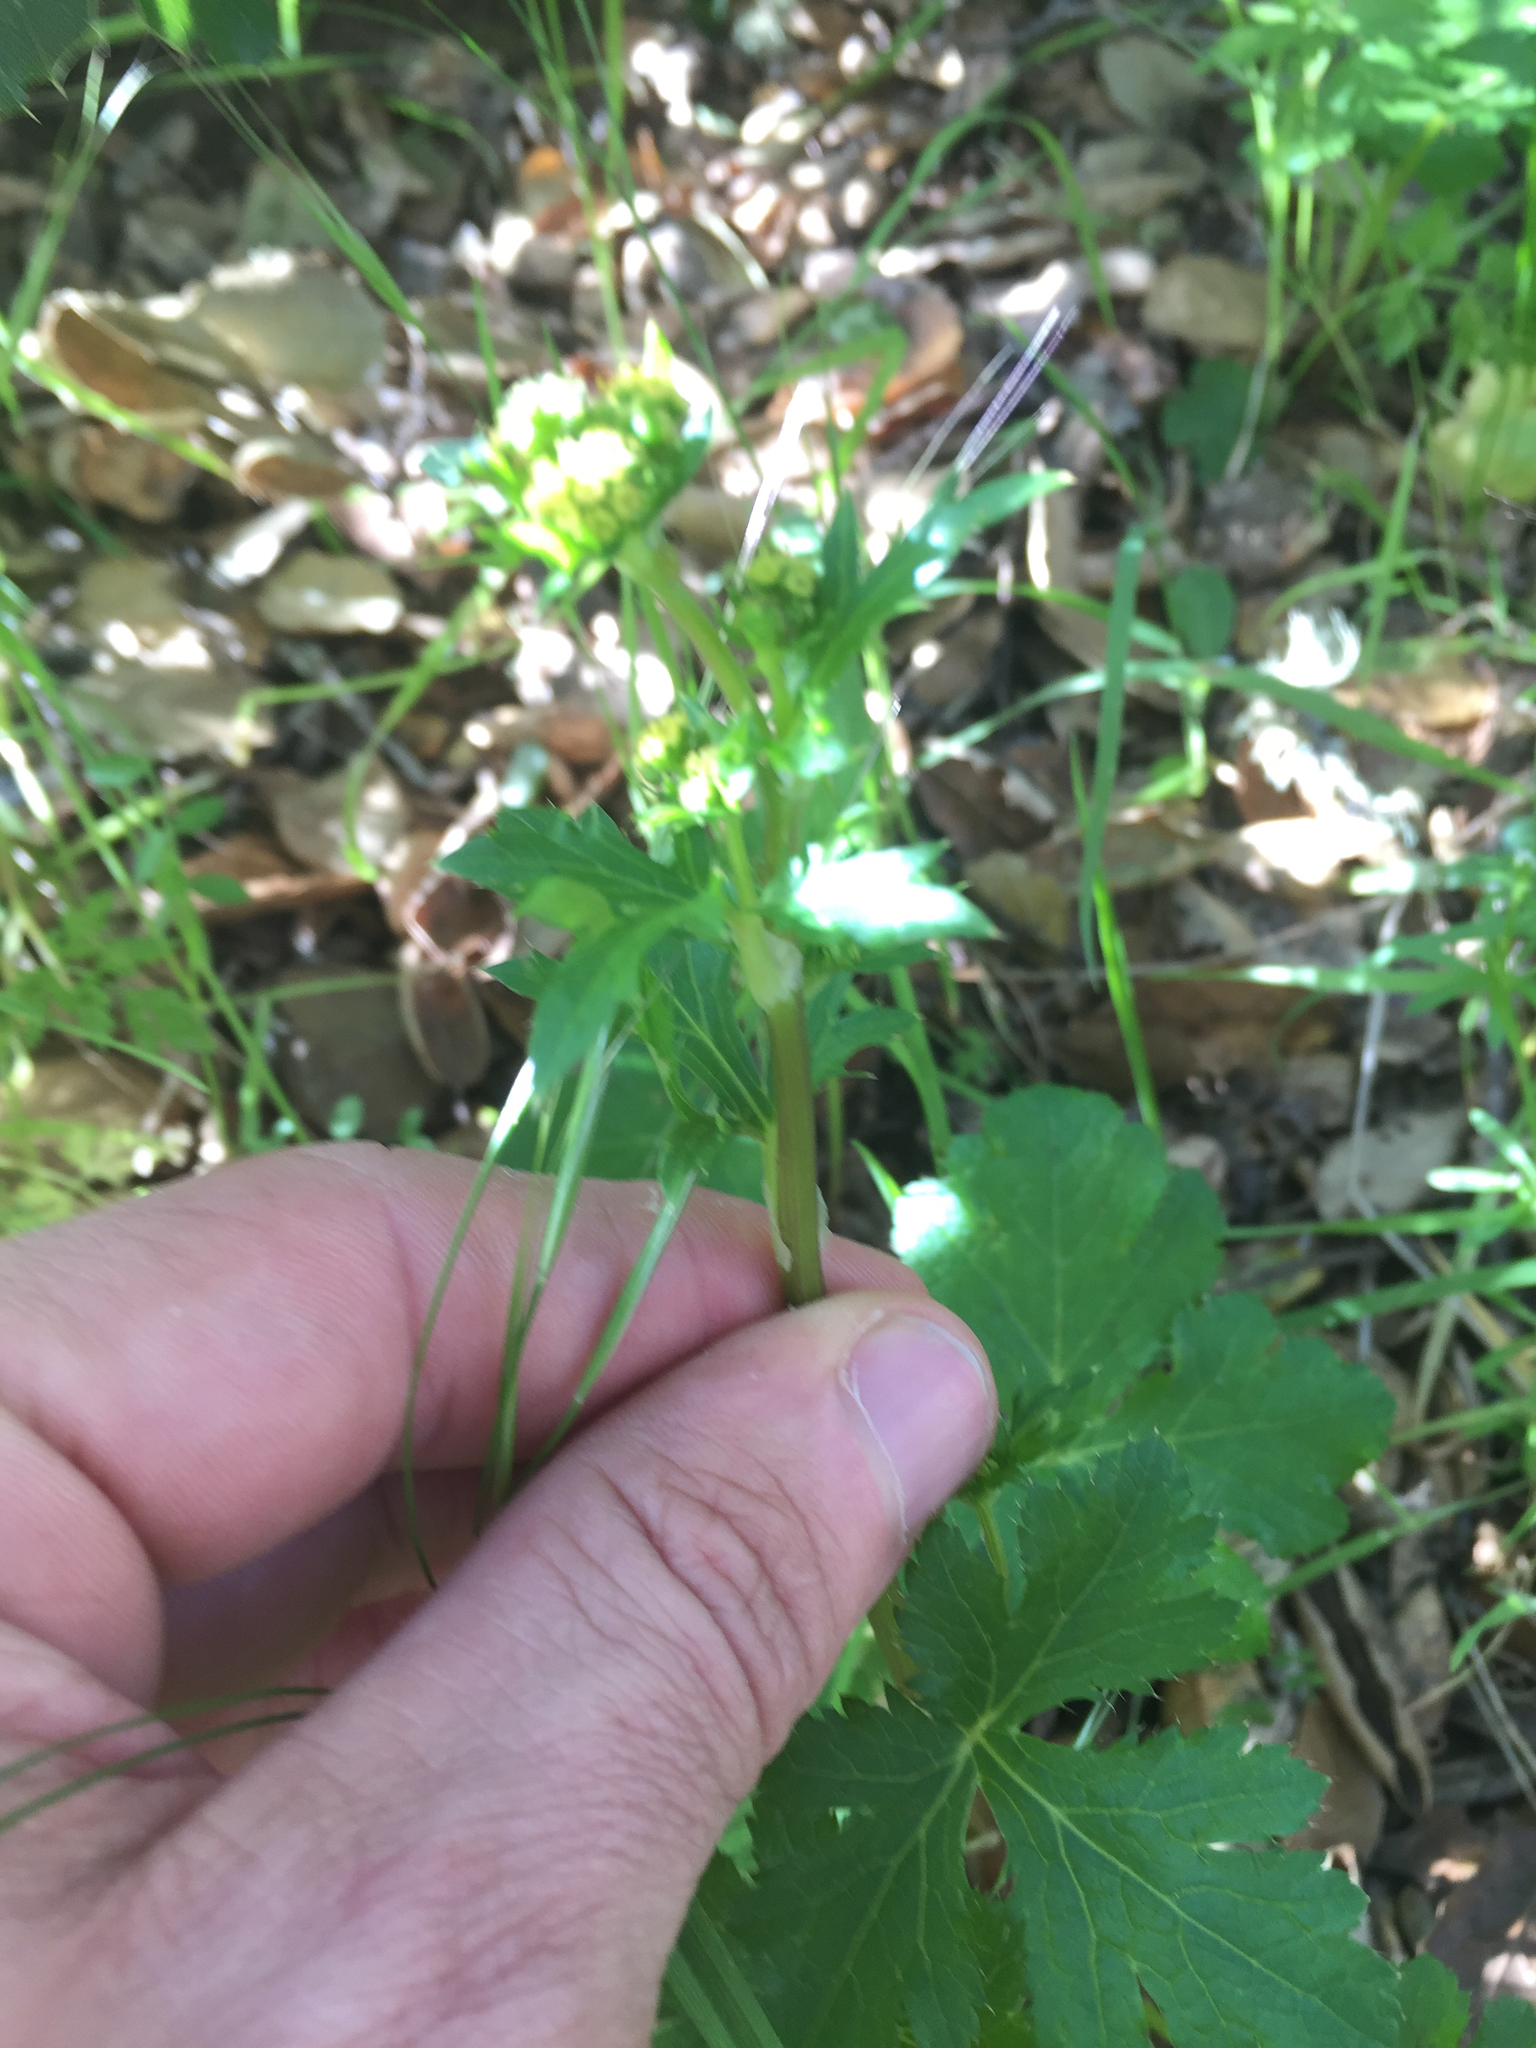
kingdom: Plantae
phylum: Tracheophyta
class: Magnoliopsida
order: Apiales
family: Apiaceae
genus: Sanicula
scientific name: Sanicula crassicaulis
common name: Western snakeroot
